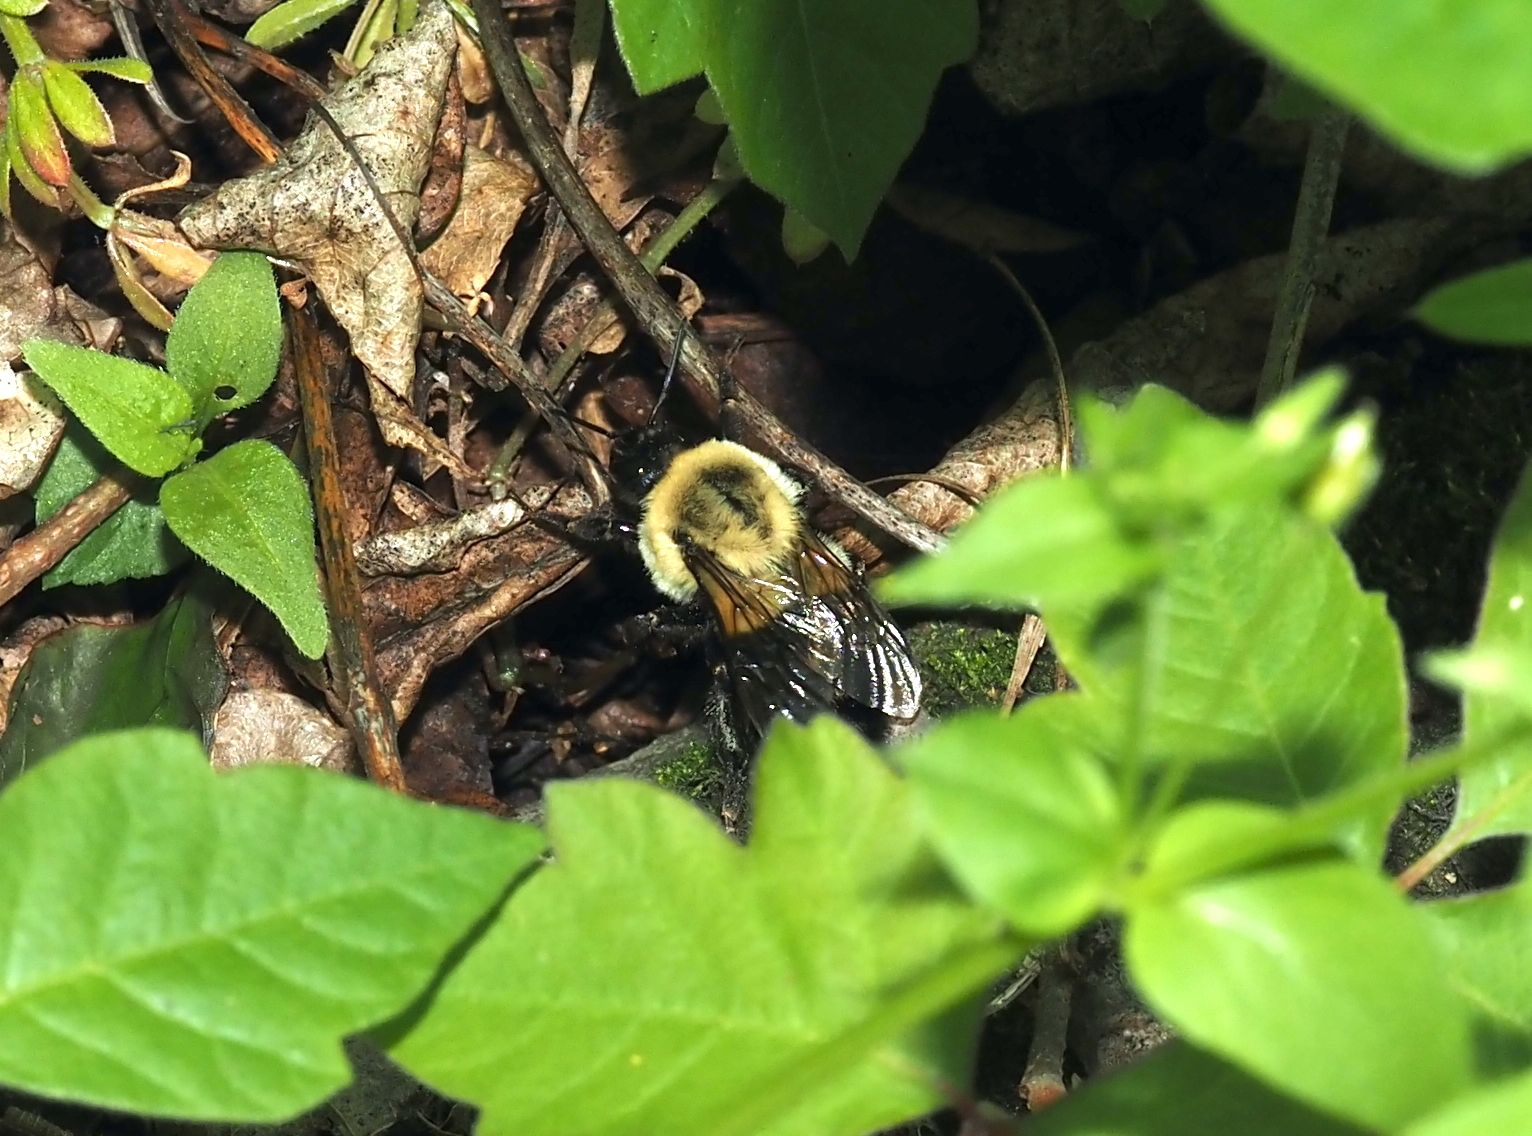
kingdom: Animalia
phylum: Arthropoda
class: Insecta
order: Hymenoptera
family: Apidae
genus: Bombus
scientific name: Bombus impatiens
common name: Common eastern bumble bee
